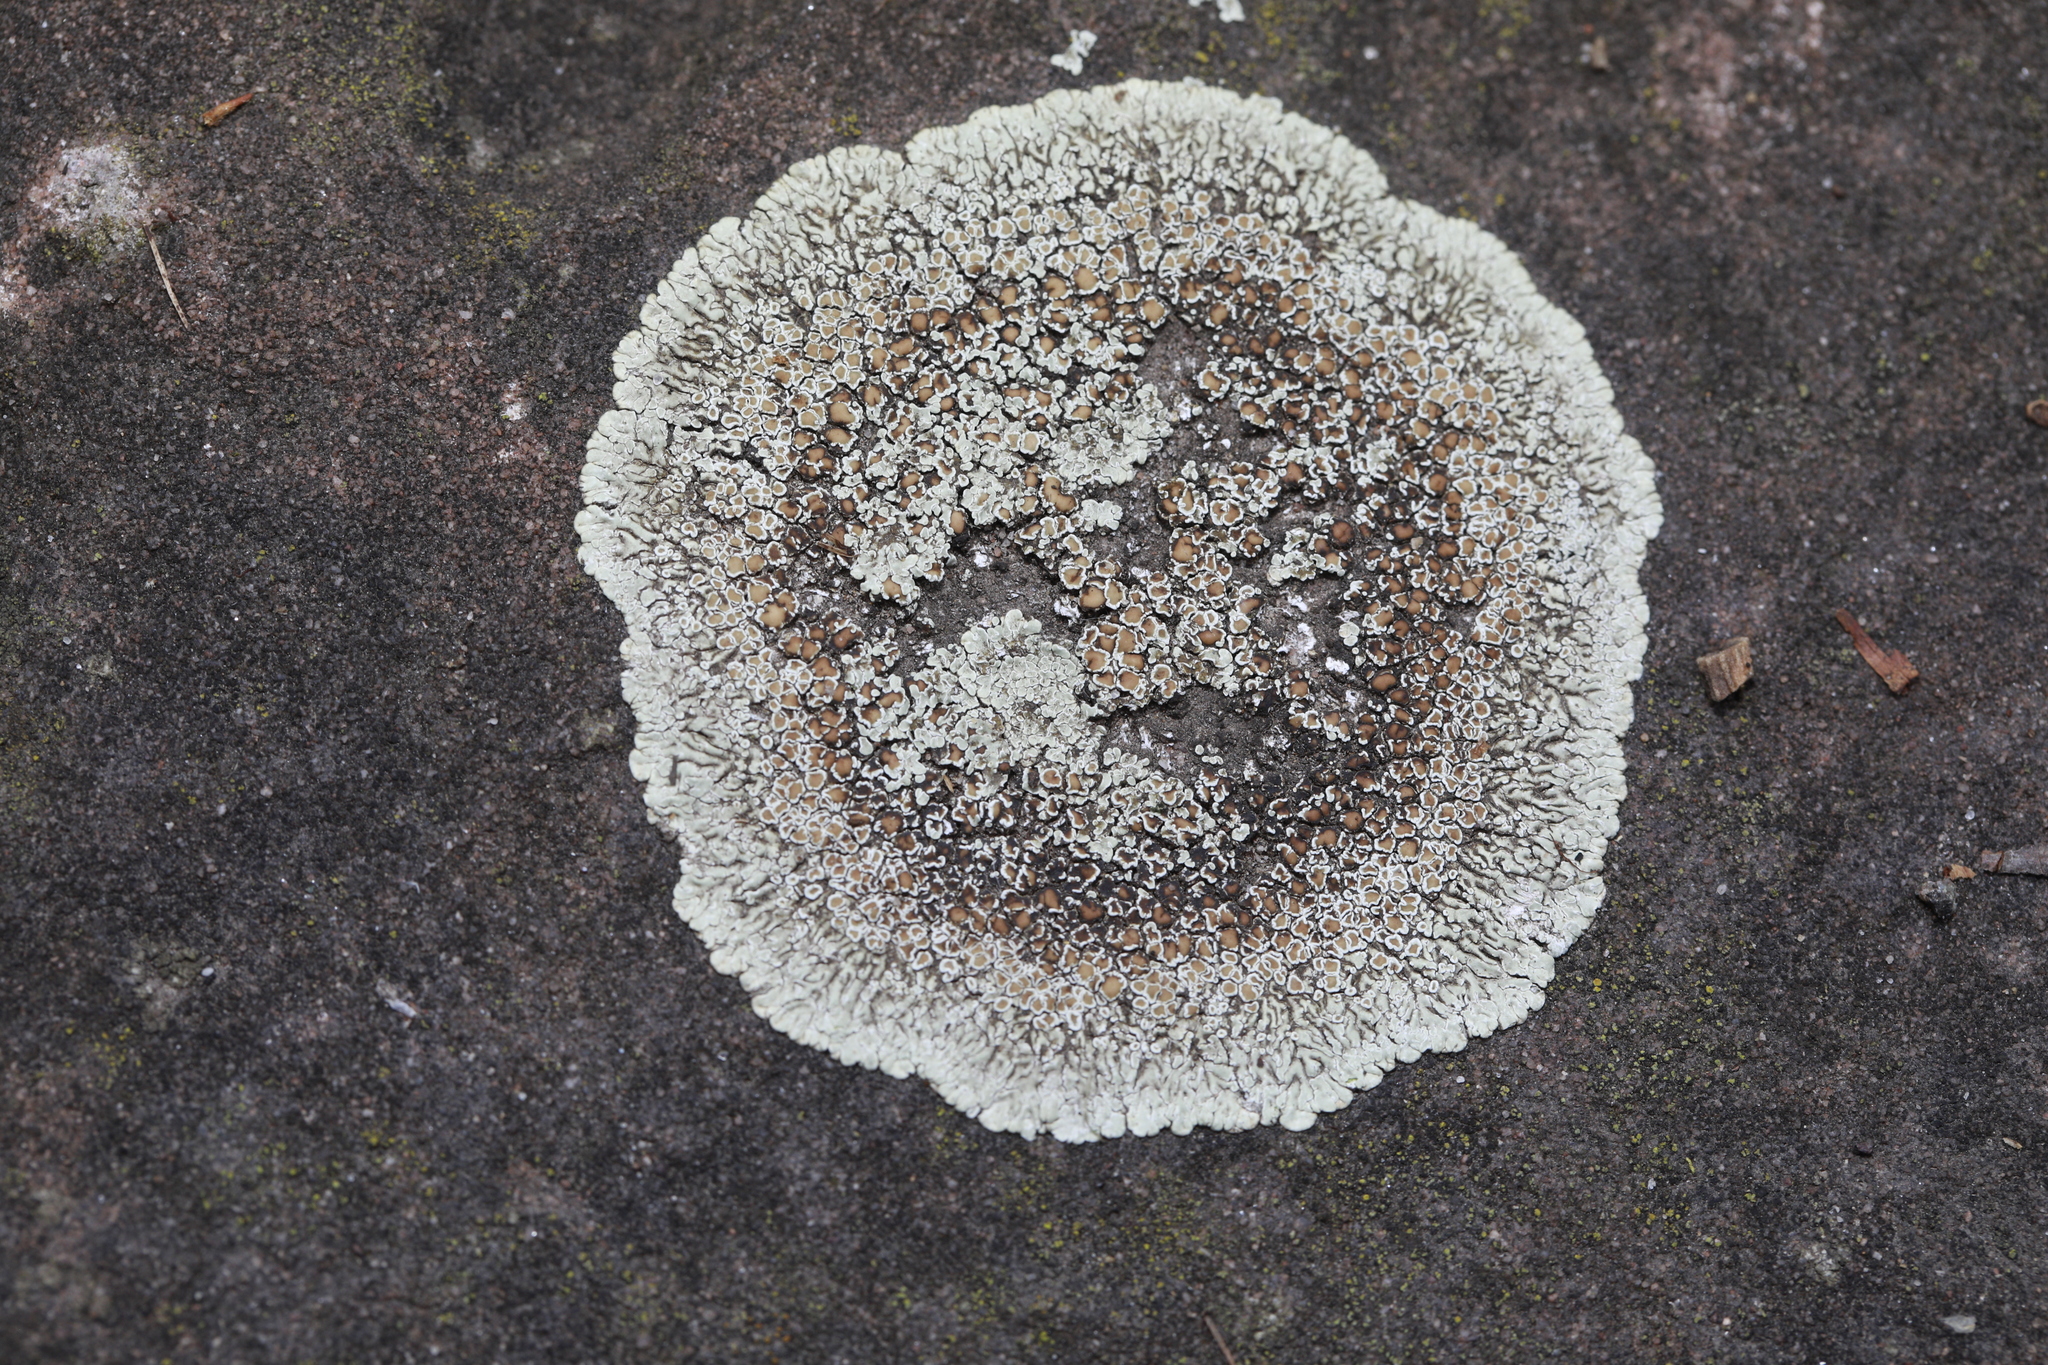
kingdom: Fungi
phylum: Ascomycota
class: Lecanoromycetes
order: Lecanorales
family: Lecanoraceae
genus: Protoparmeliopsis
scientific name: Protoparmeliopsis muralis
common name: Stonewall rim lichen
